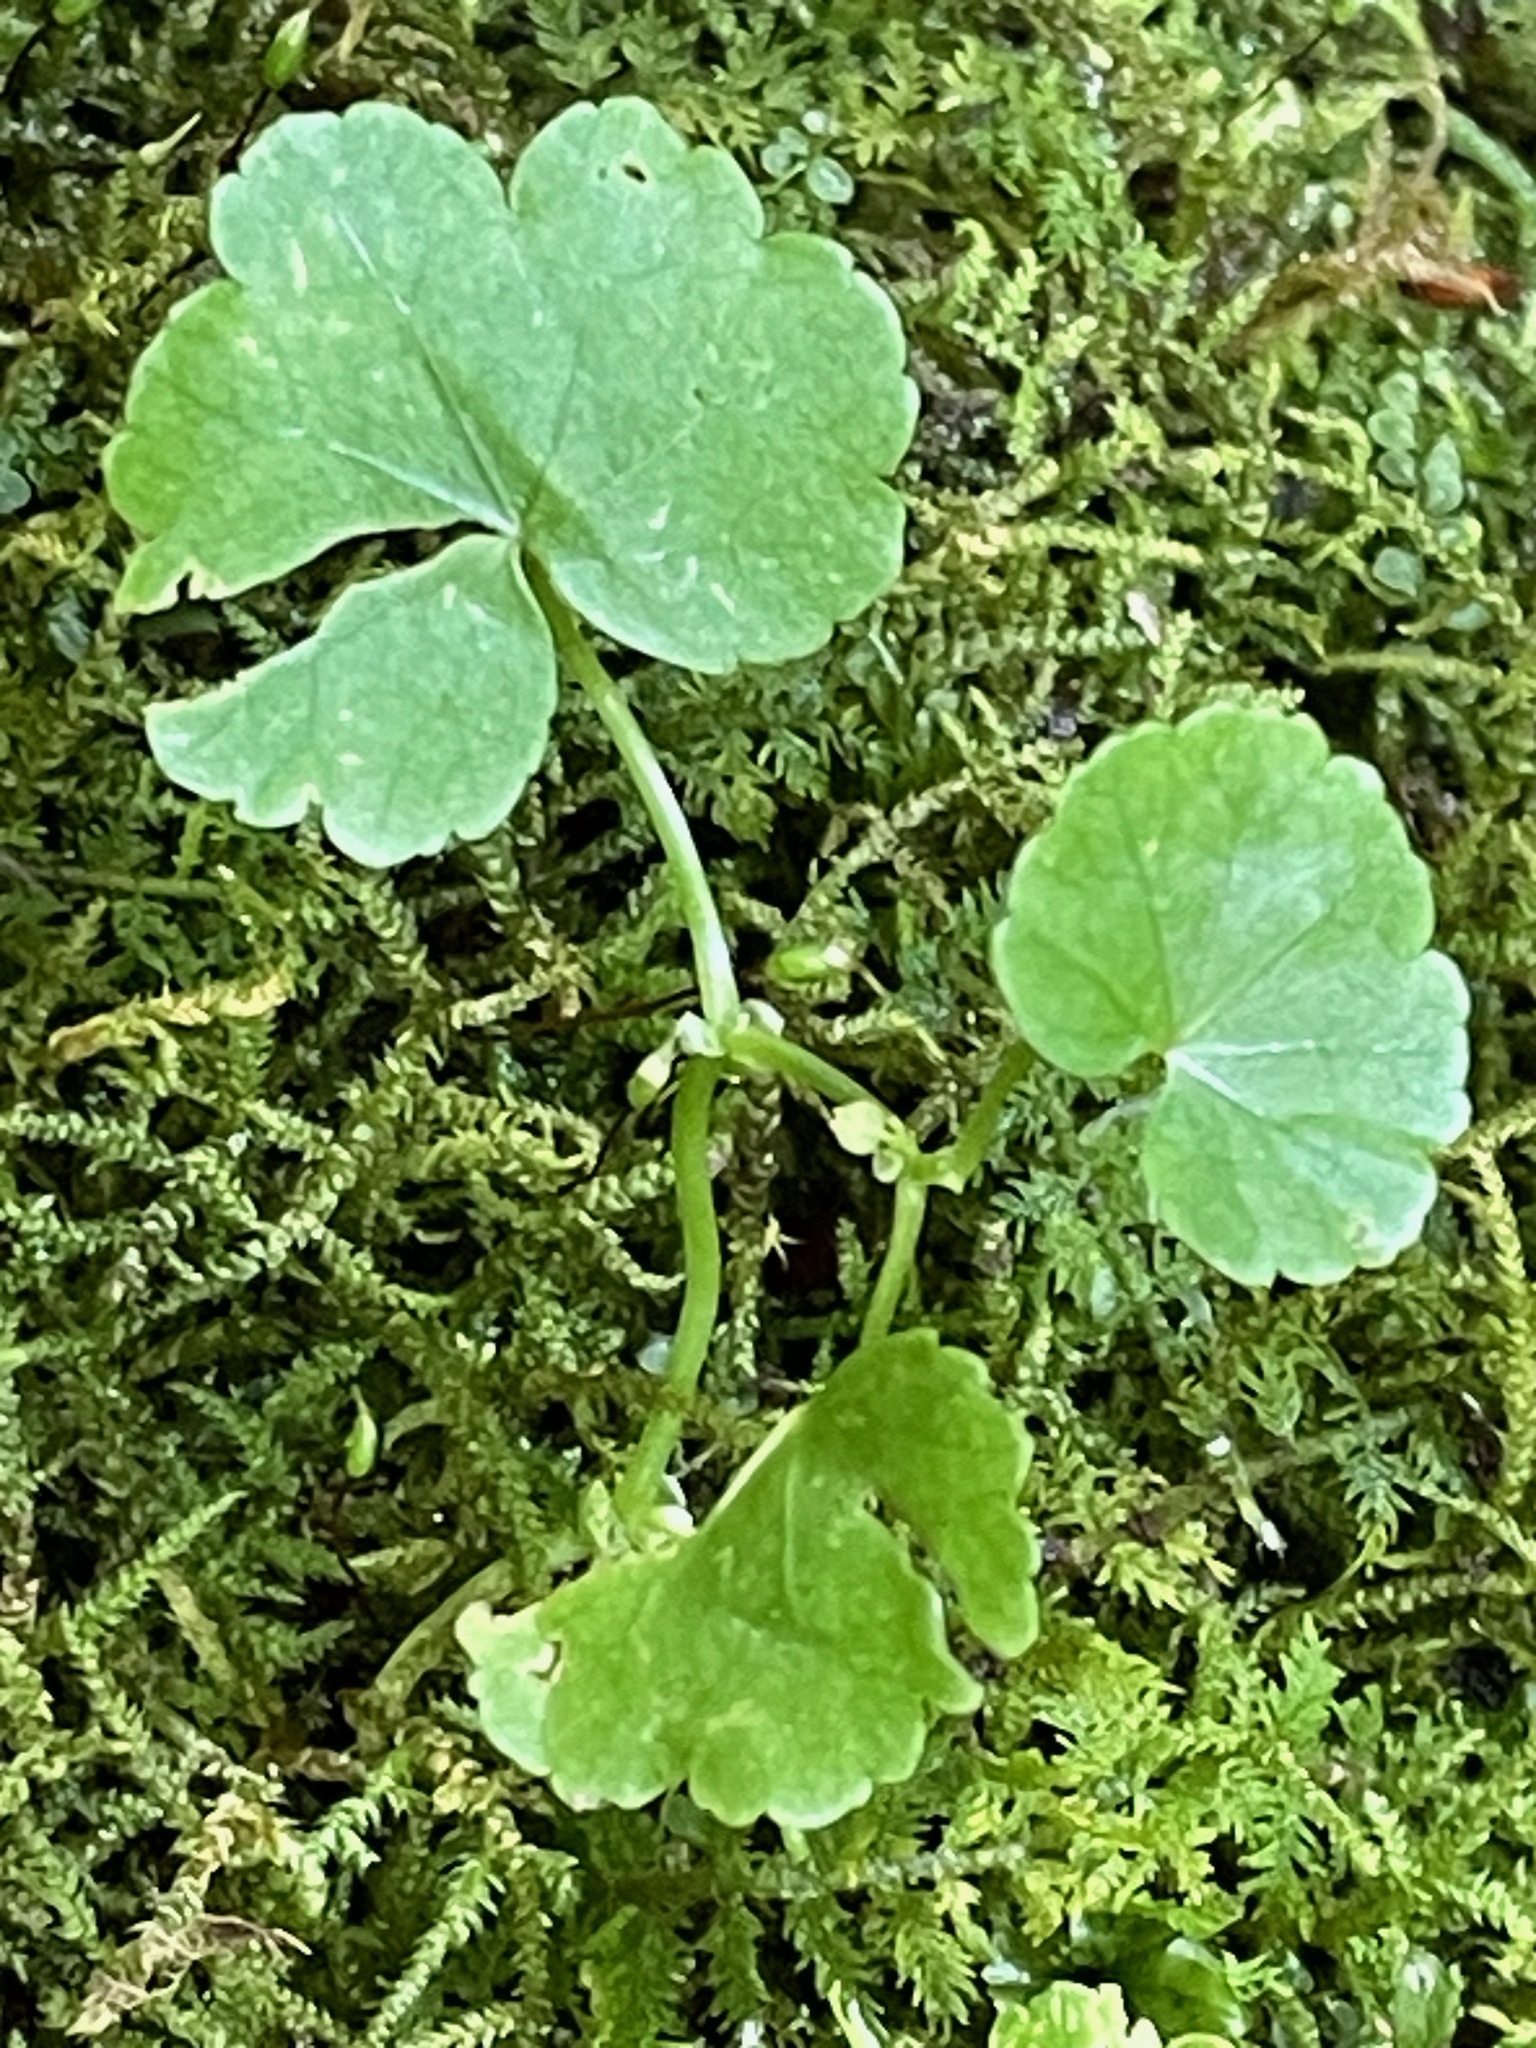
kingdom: Plantae
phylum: Tracheophyta
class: Magnoliopsida
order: Apiales
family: Araliaceae
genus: Hydrocotyle
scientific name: Hydrocotyle americana
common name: American water-pennywort
